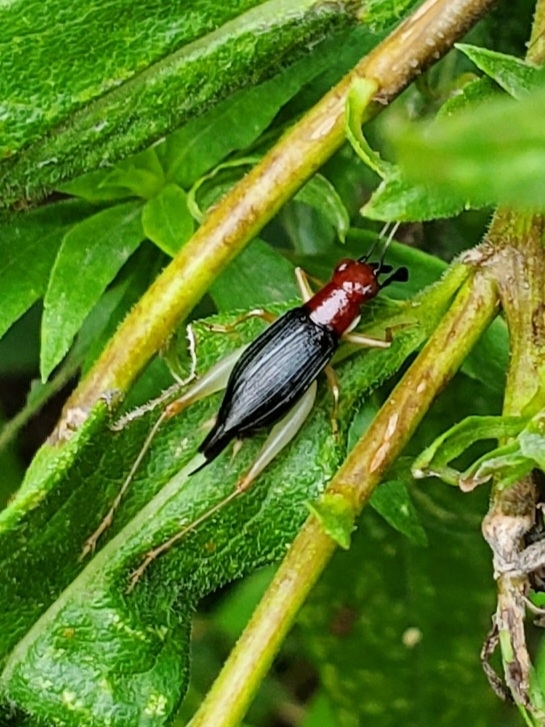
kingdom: Animalia
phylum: Arthropoda
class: Insecta
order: Orthoptera
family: Trigonidiidae
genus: Phyllopalpus
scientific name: Phyllopalpus pulchellus
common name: Handsome trig
